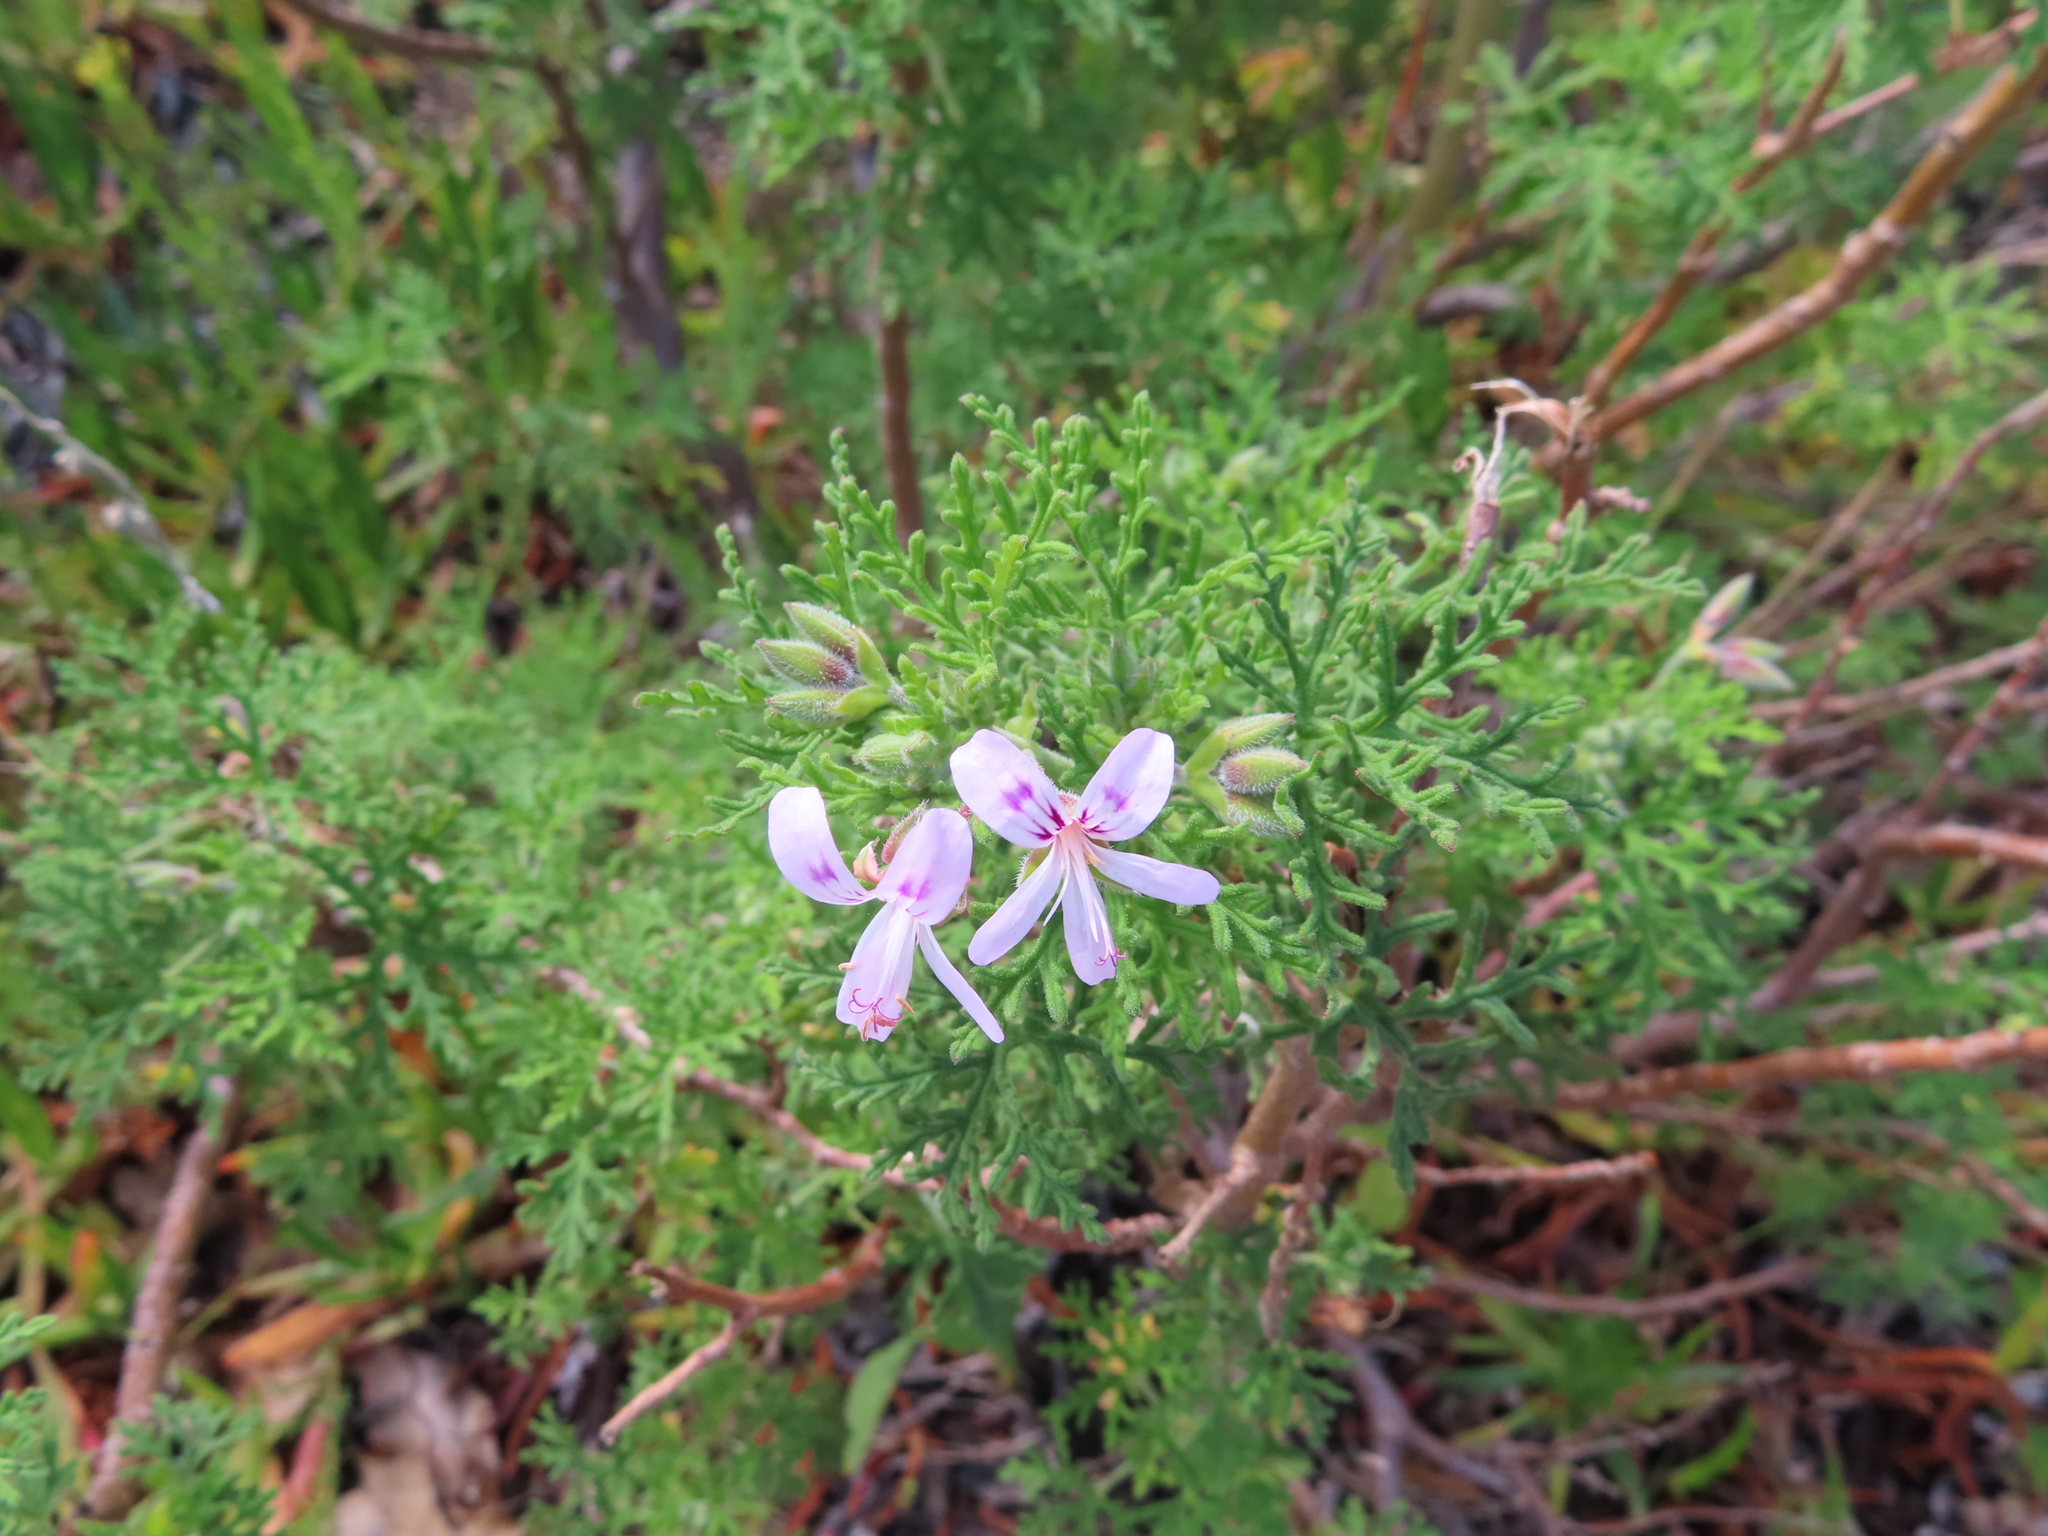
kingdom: Plantae
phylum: Tracheophyta
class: Magnoliopsida
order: Geraniales
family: Geraniaceae
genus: Pelargonium
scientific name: Pelargonium radens
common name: Rasp-leaf pelargonium
